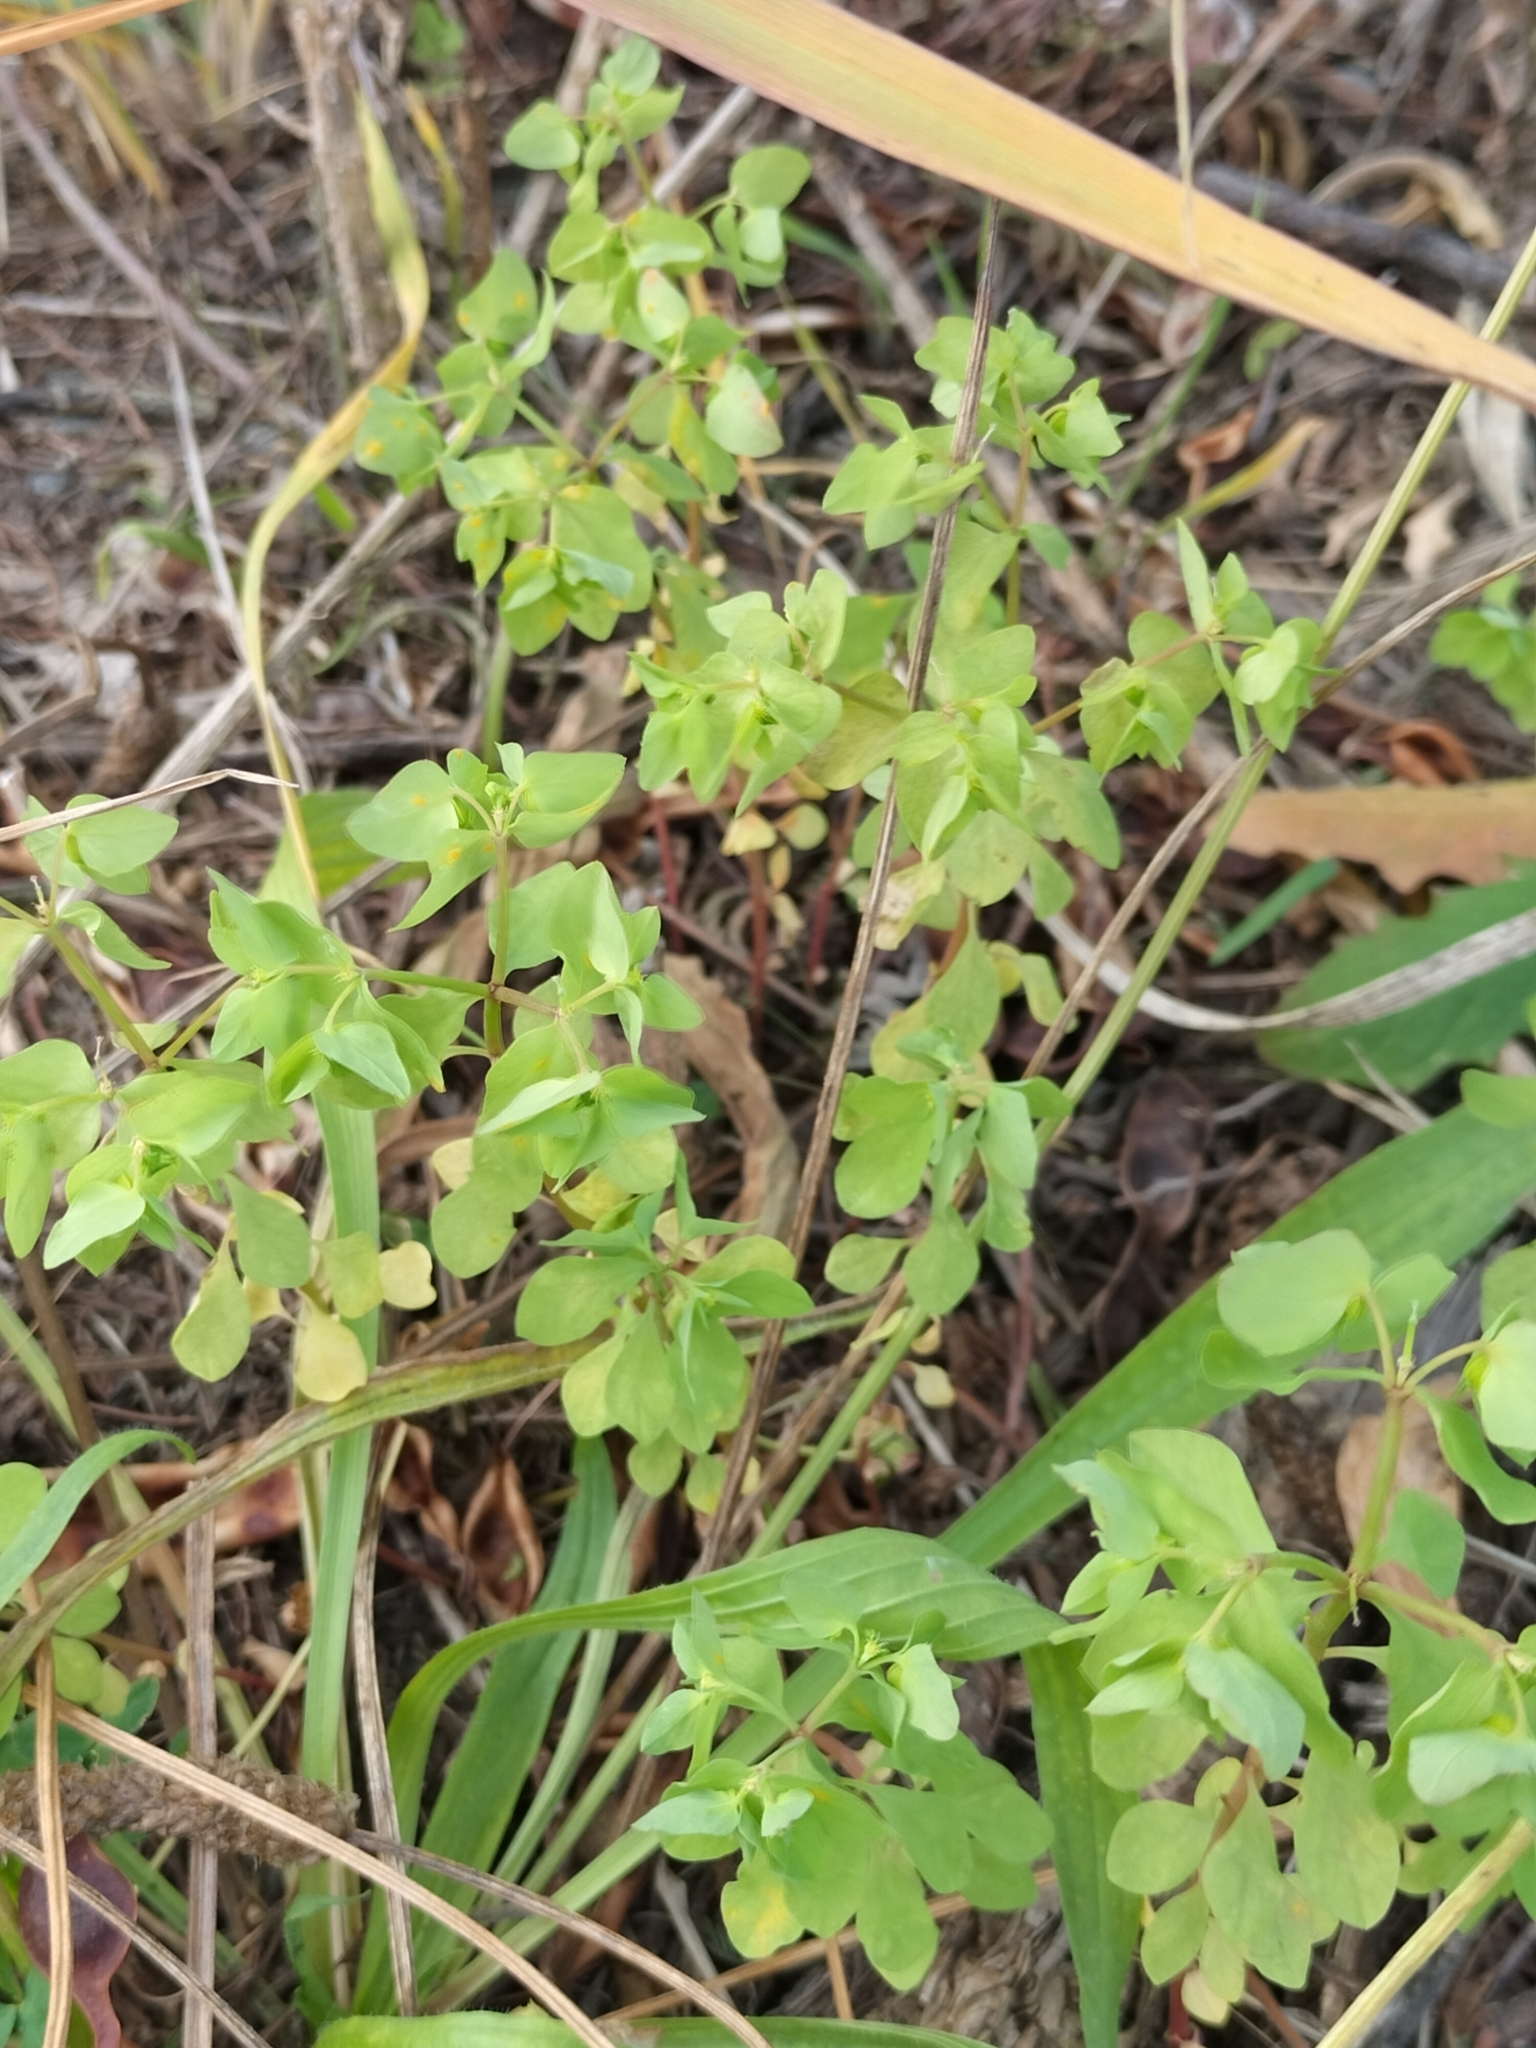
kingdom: Plantae
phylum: Tracheophyta
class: Magnoliopsida
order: Malpighiales
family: Euphorbiaceae
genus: Euphorbia
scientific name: Euphorbia peplus
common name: Petty spurge
